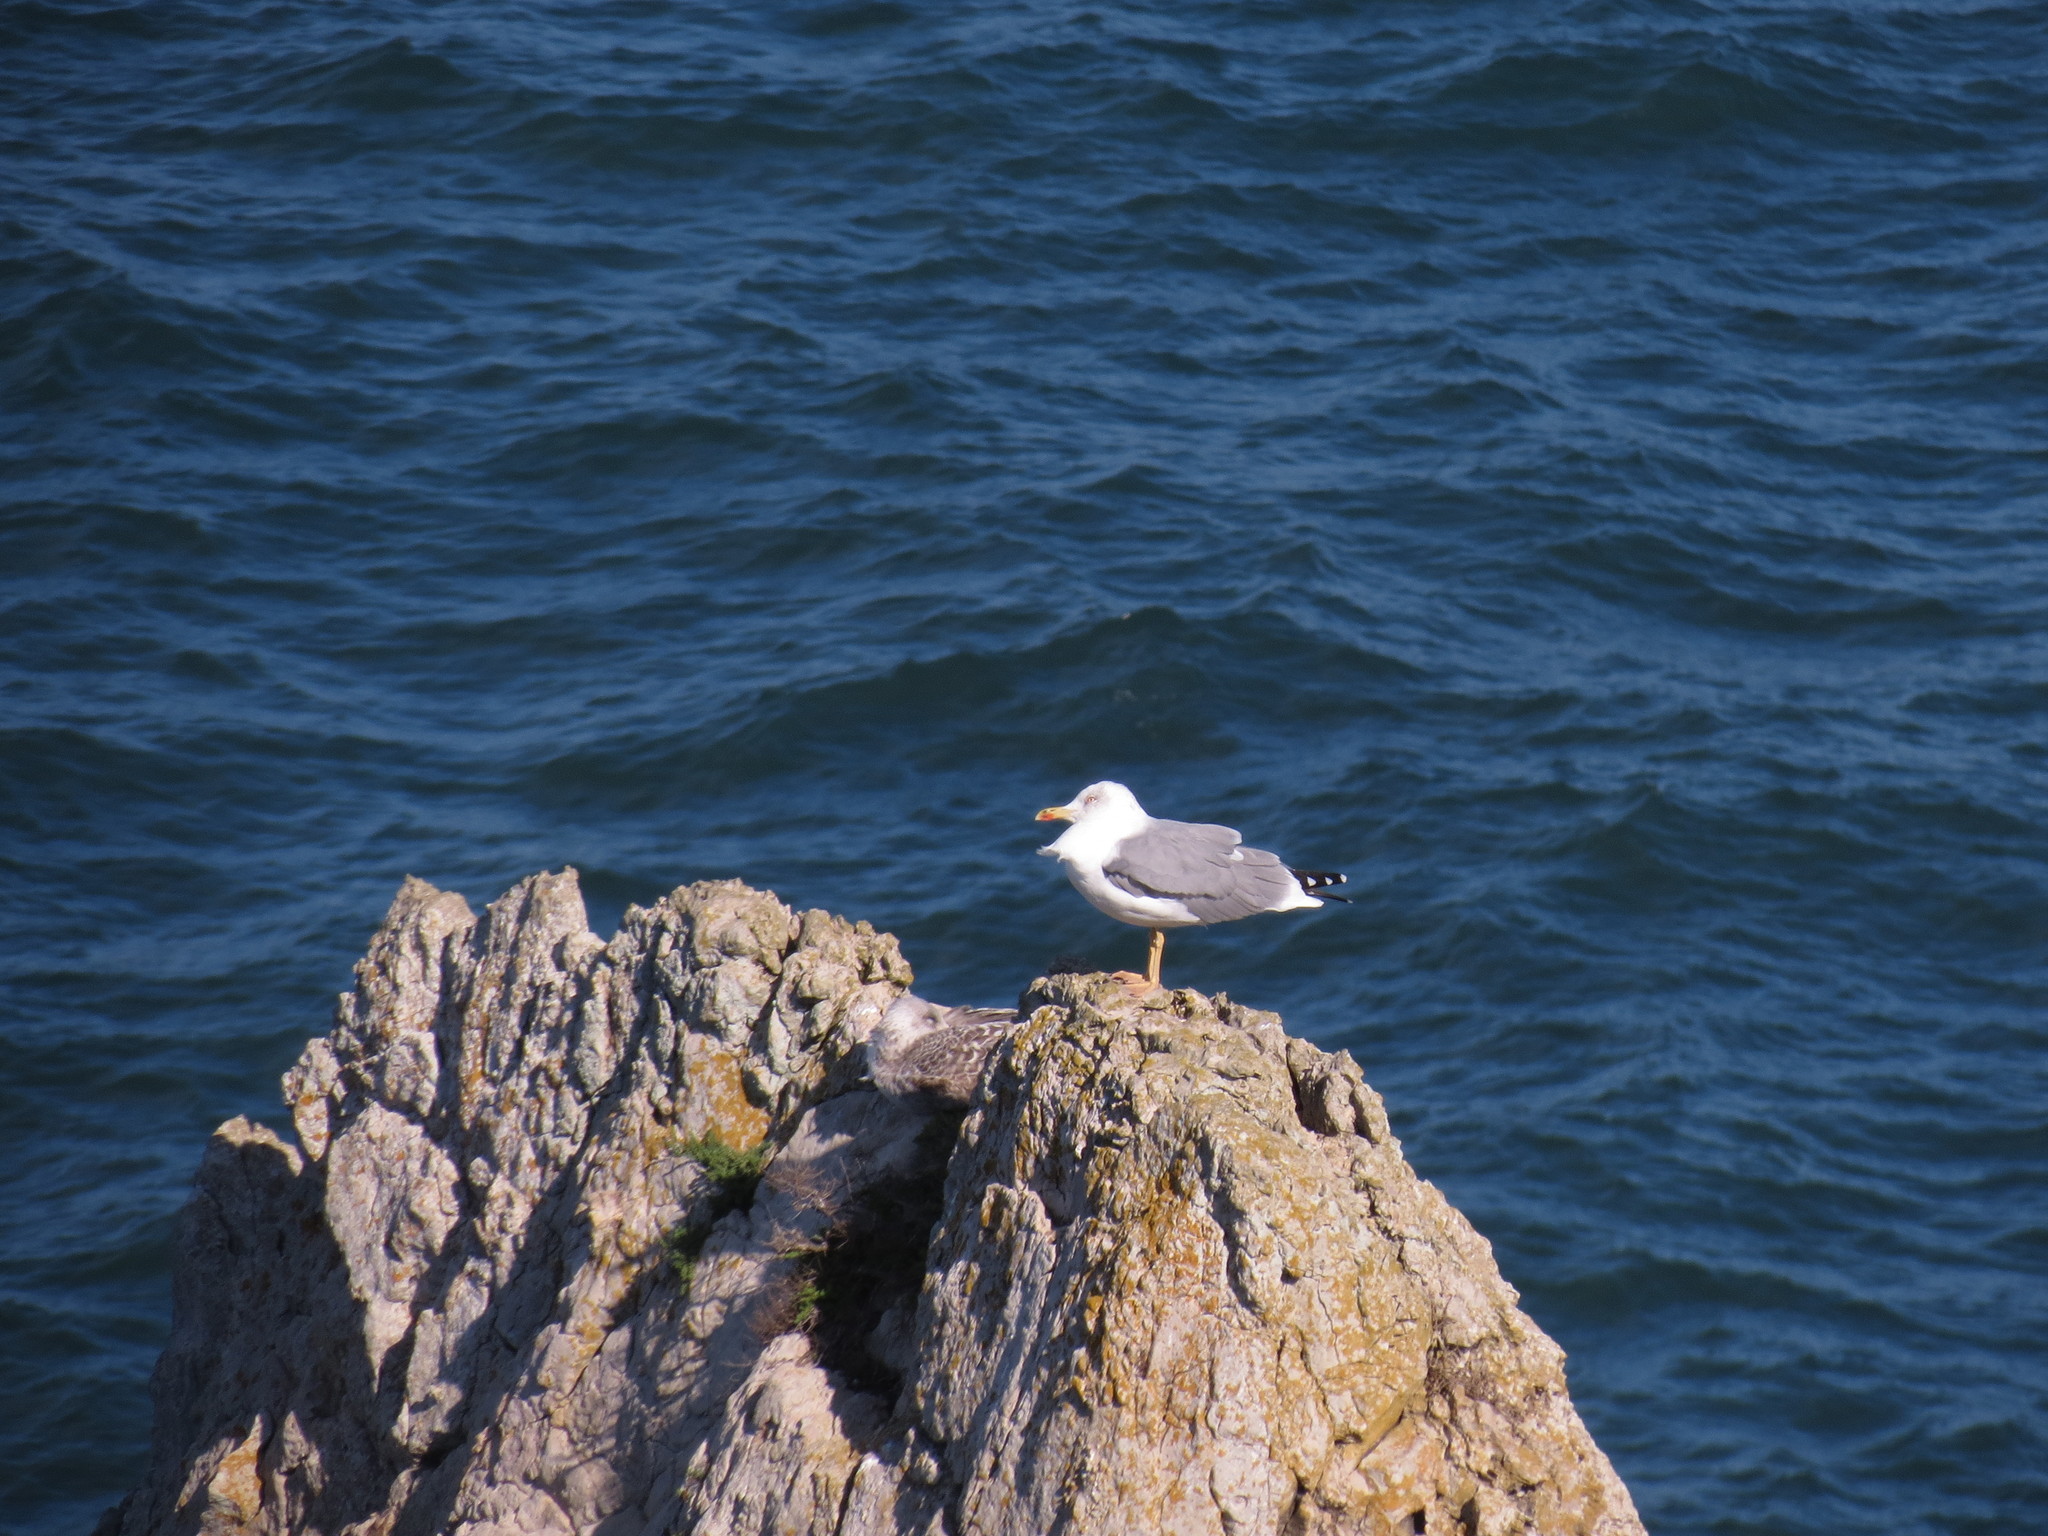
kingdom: Animalia
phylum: Chordata
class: Aves
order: Charadriiformes
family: Laridae
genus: Larus
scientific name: Larus michahellis
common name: Yellow-legged gull
